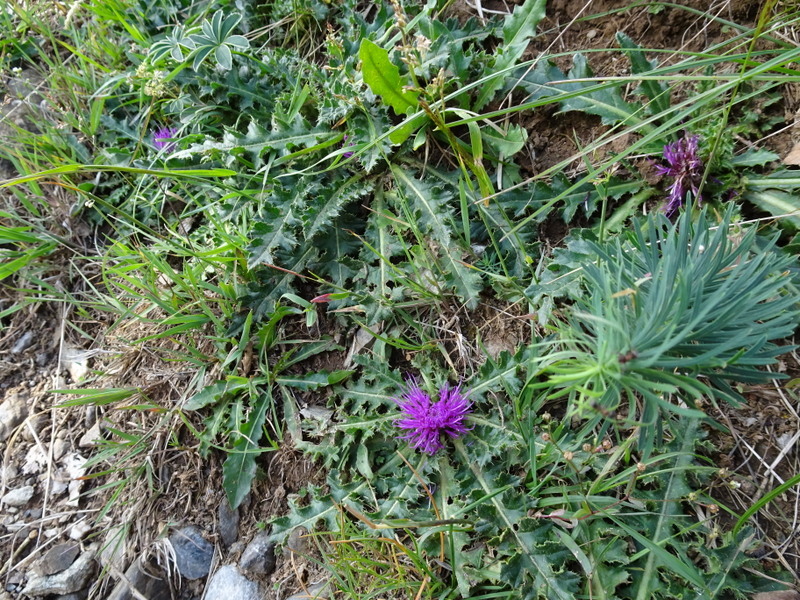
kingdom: Plantae
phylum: Tracheophyta
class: Magnoliopsida
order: Asterales
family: Asteraceae
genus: Cirsium
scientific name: Cirsium acaulon
